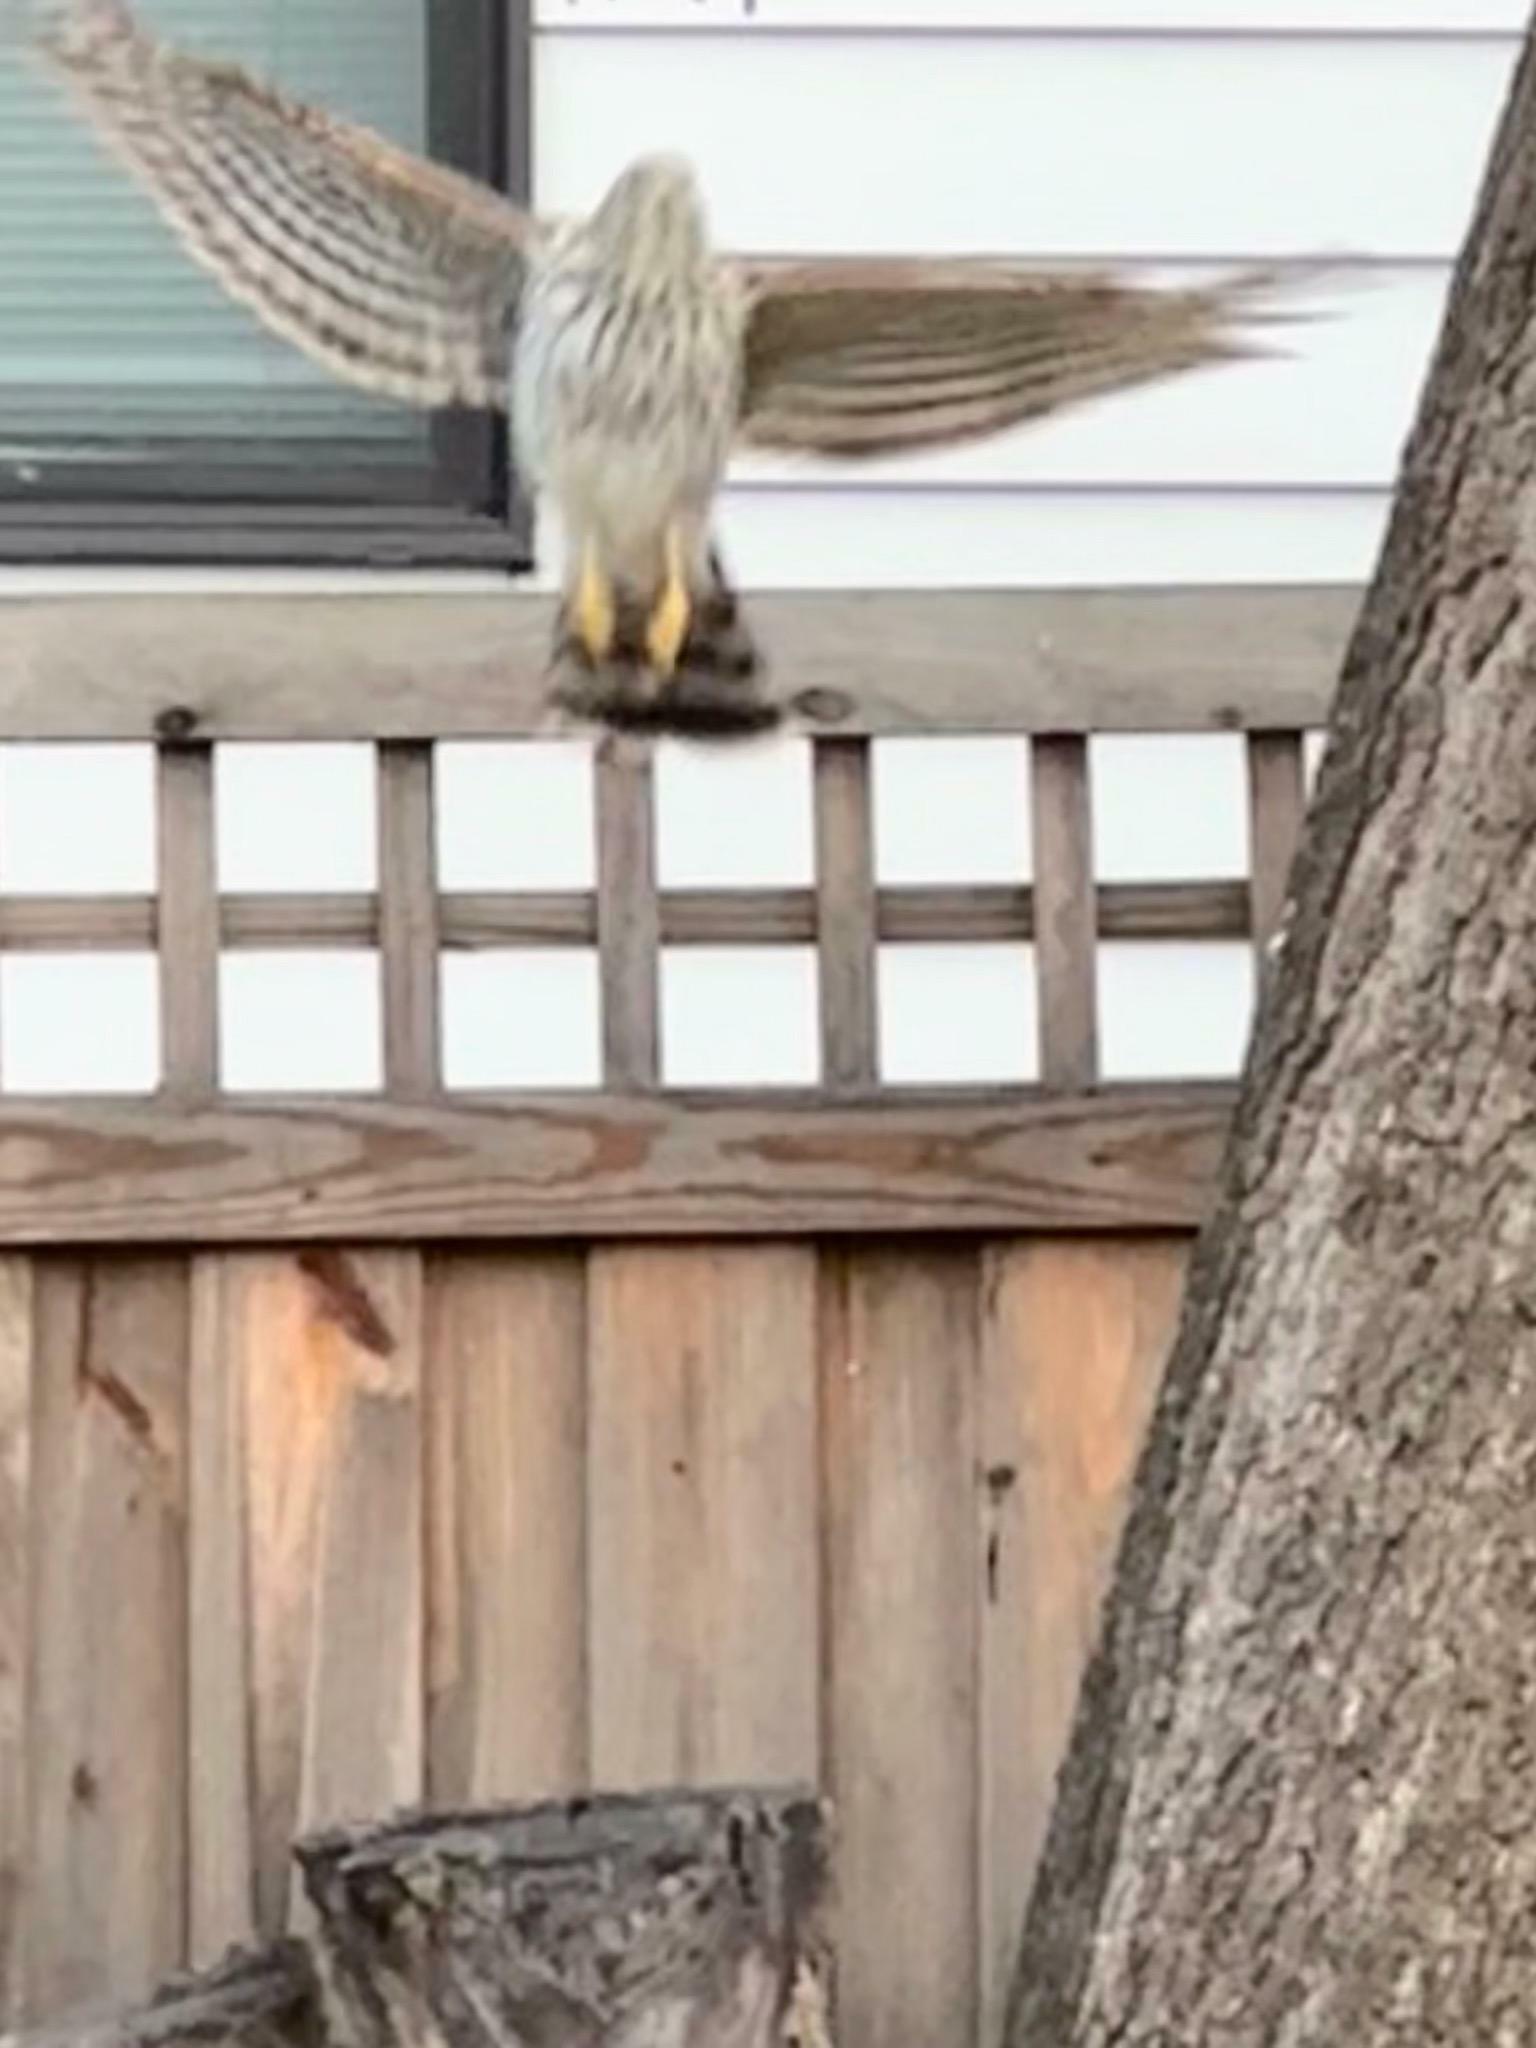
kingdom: Animalia
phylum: Chordata
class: Aves
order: Accipitriformes
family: Accipitridae
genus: Accipiter
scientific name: Accipiter cooperii
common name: Cooper's hawk
